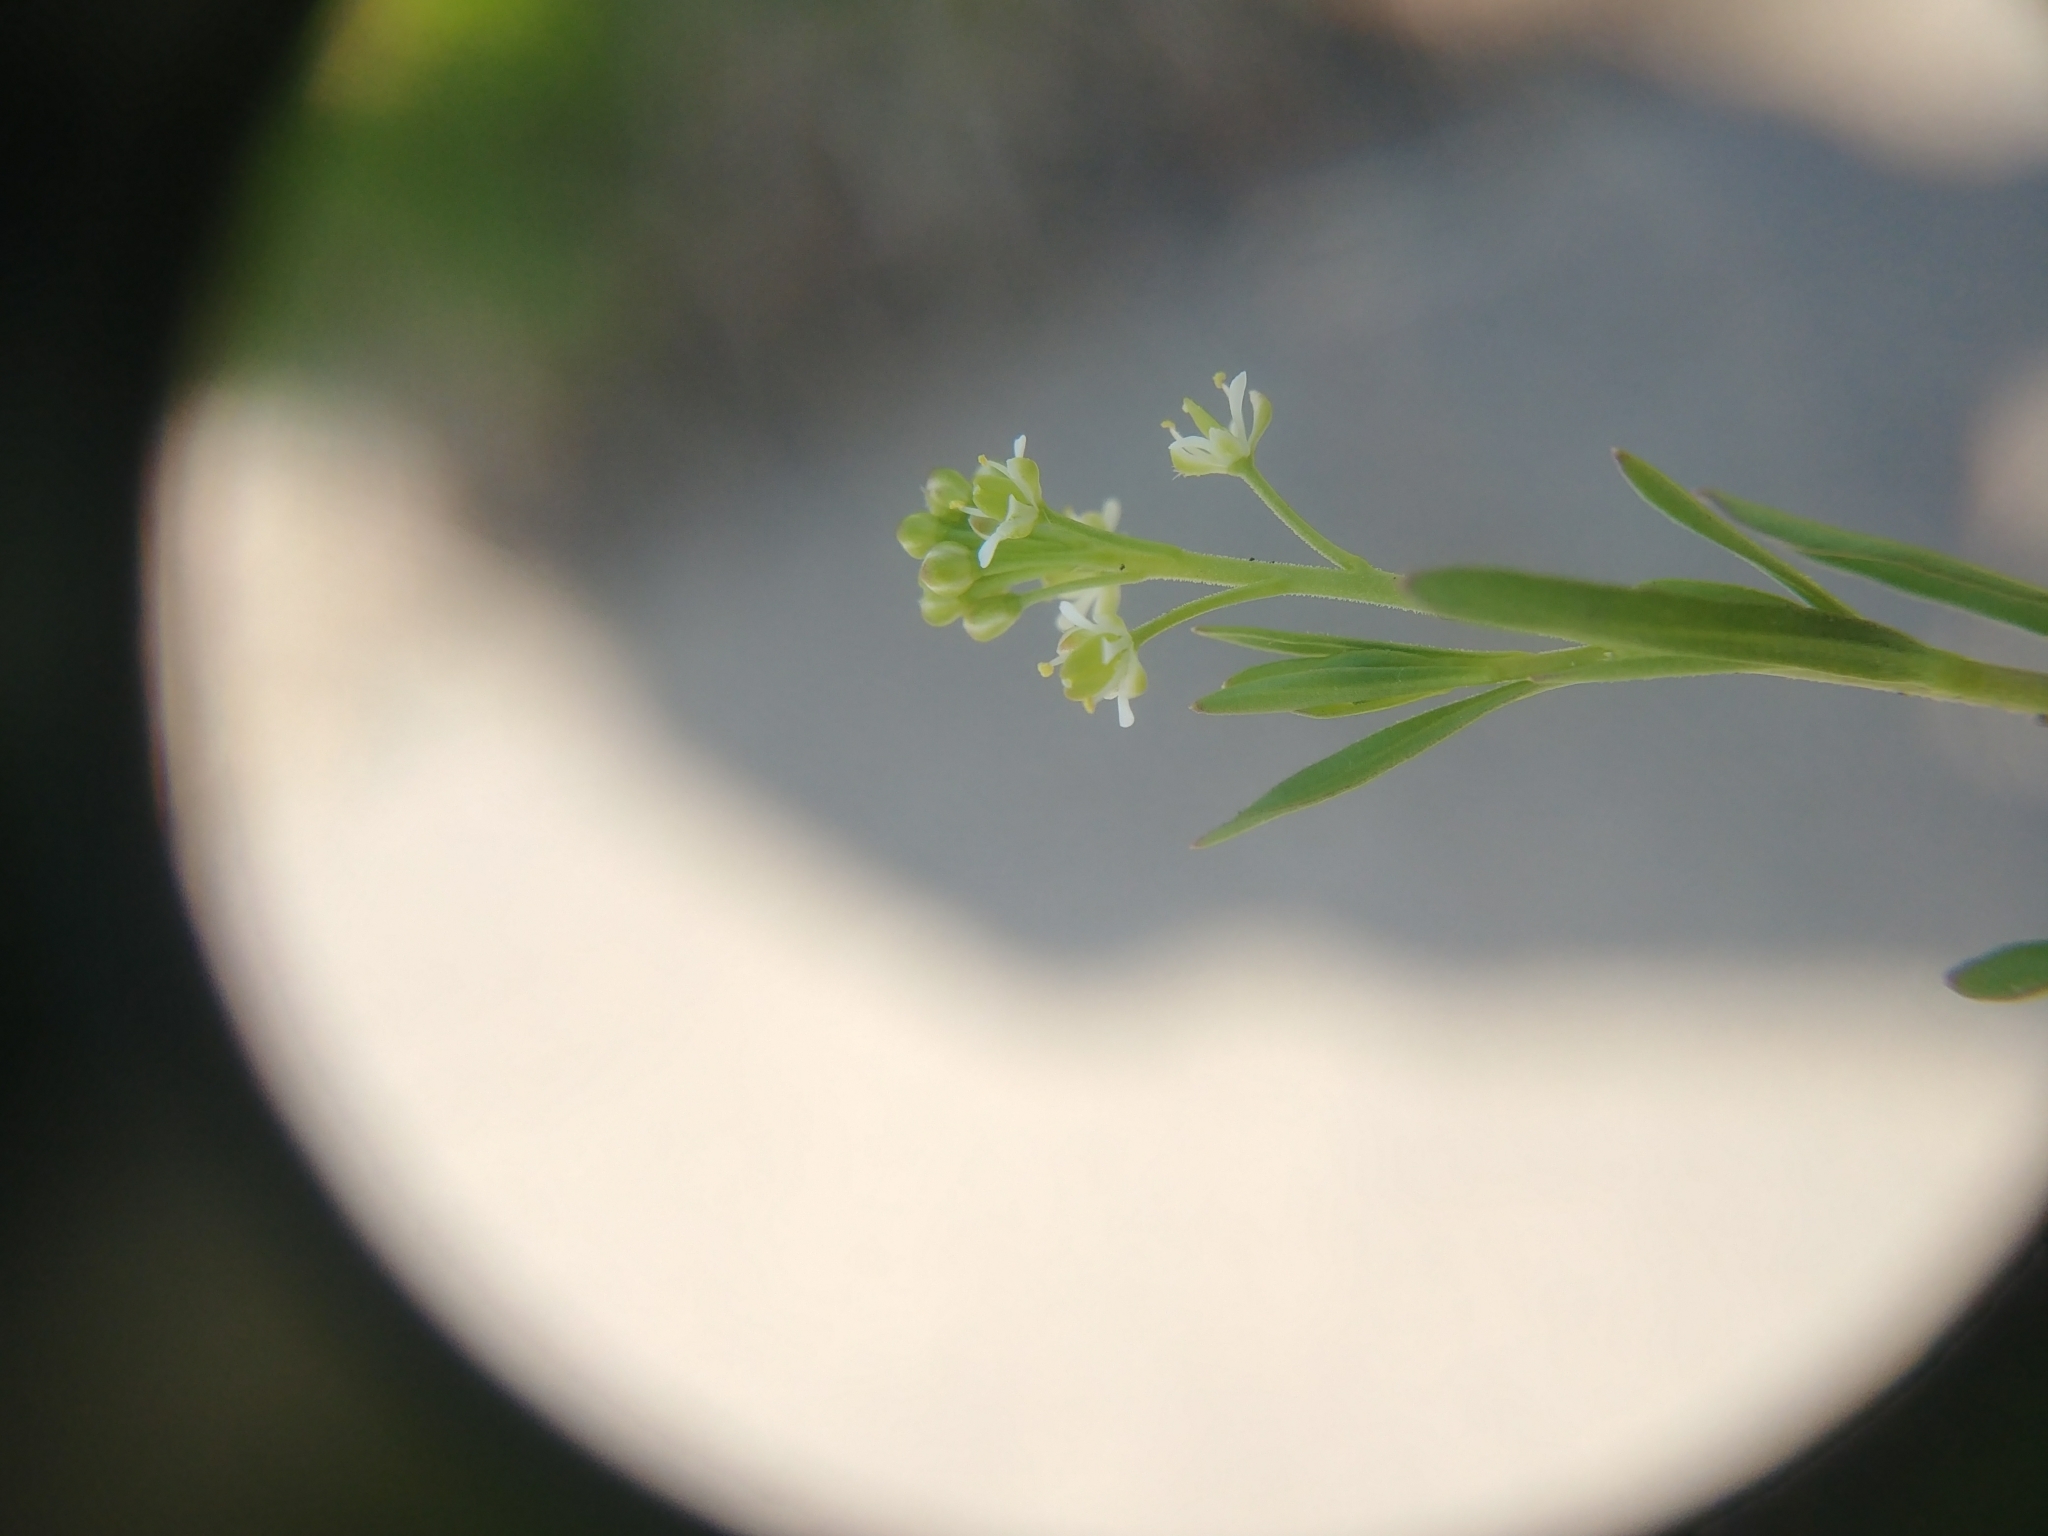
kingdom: Plantae
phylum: Tracheophyta
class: Magnoliopsida
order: Brassicales
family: Brassicaceae
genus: Lepidium
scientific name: Lepidium virginicum
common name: Least pepperwort
